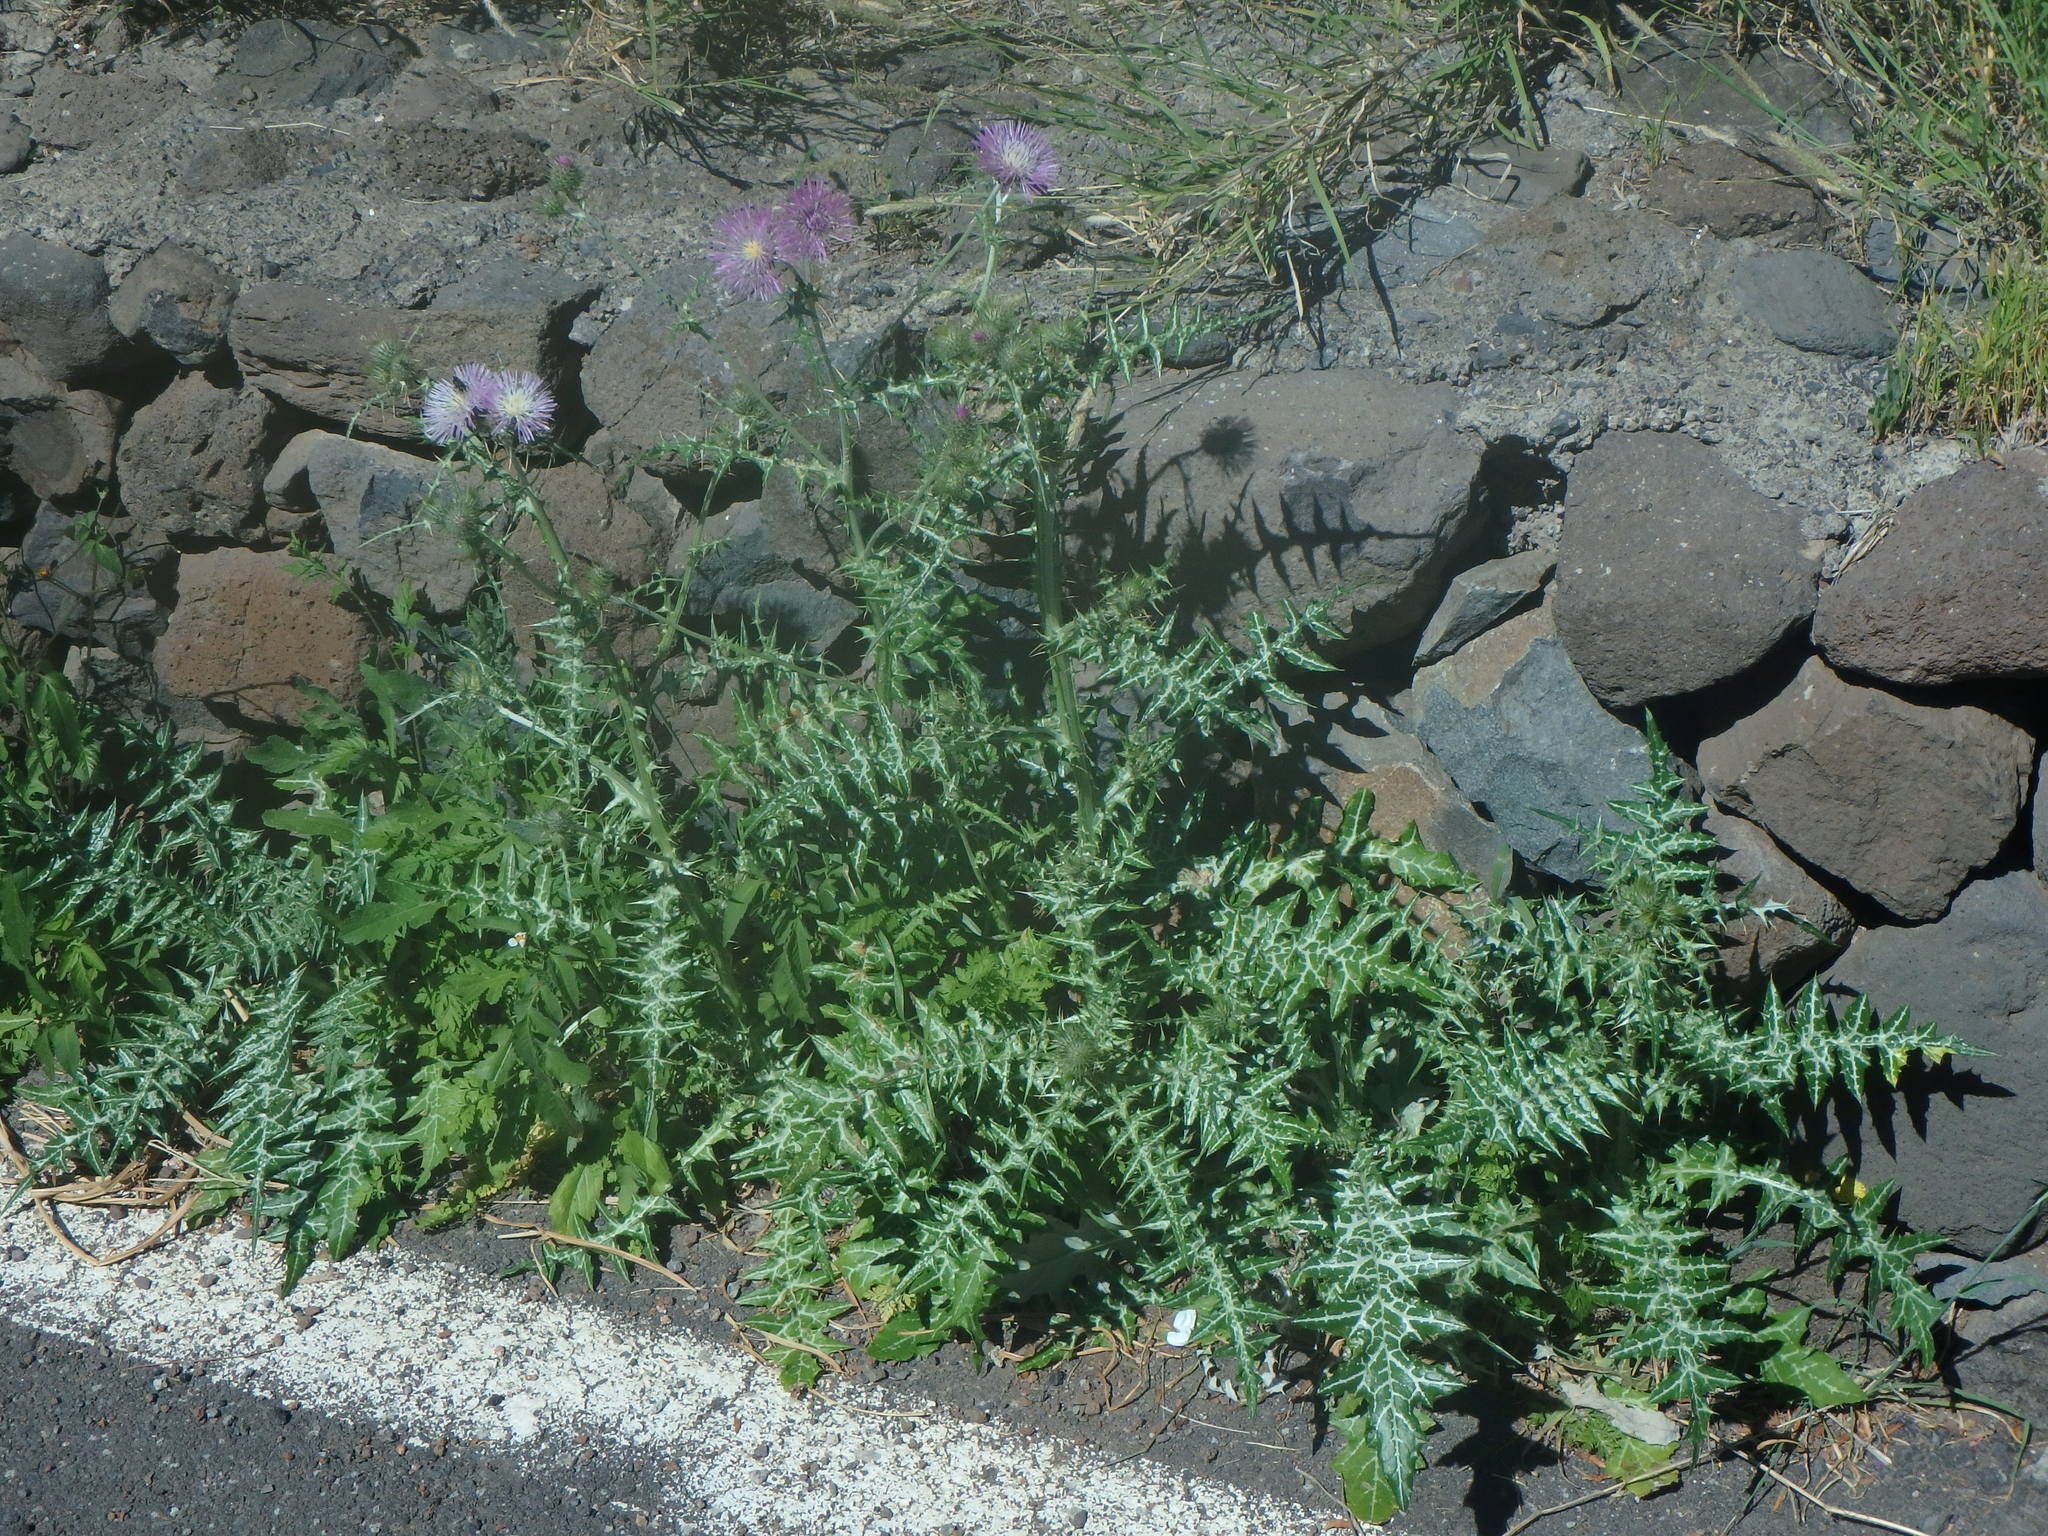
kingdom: Plantae
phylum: Tracheophyta
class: Magnoliopsida
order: Asterales
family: Asteraceae
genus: Galactites
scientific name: Galactites tomentosa
